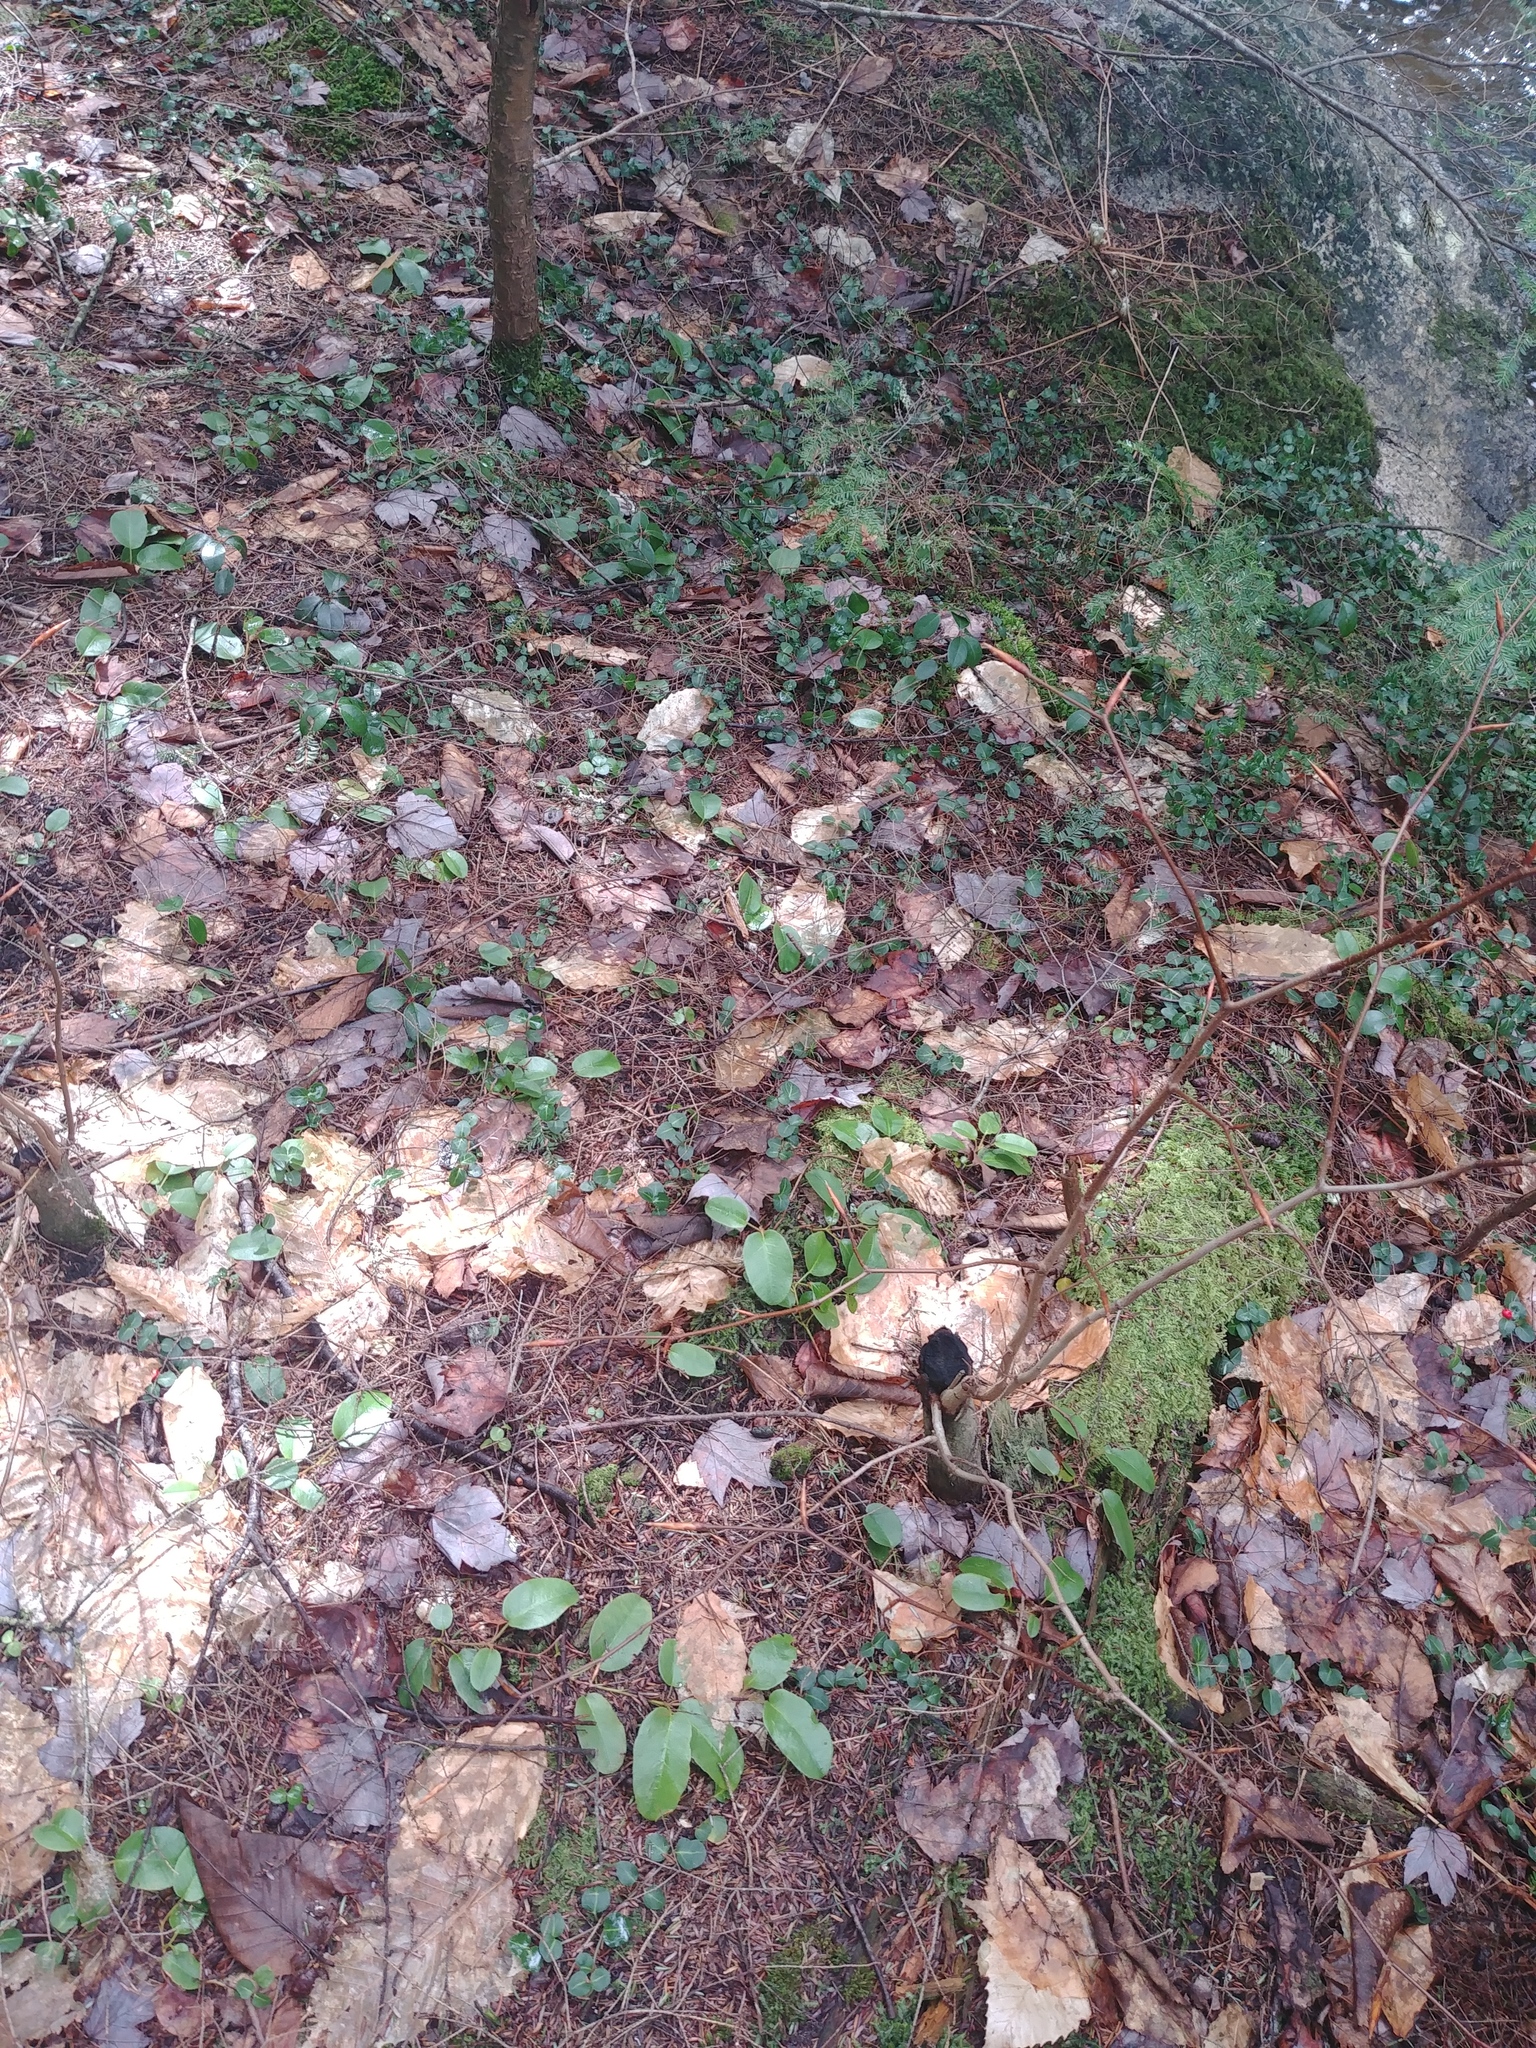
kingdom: Plantae
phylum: Tracheophyta
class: Magnoliopsida
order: Ericales
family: Ericaceae
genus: Epigaea
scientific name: Epigaea repens
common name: Gravelroot
